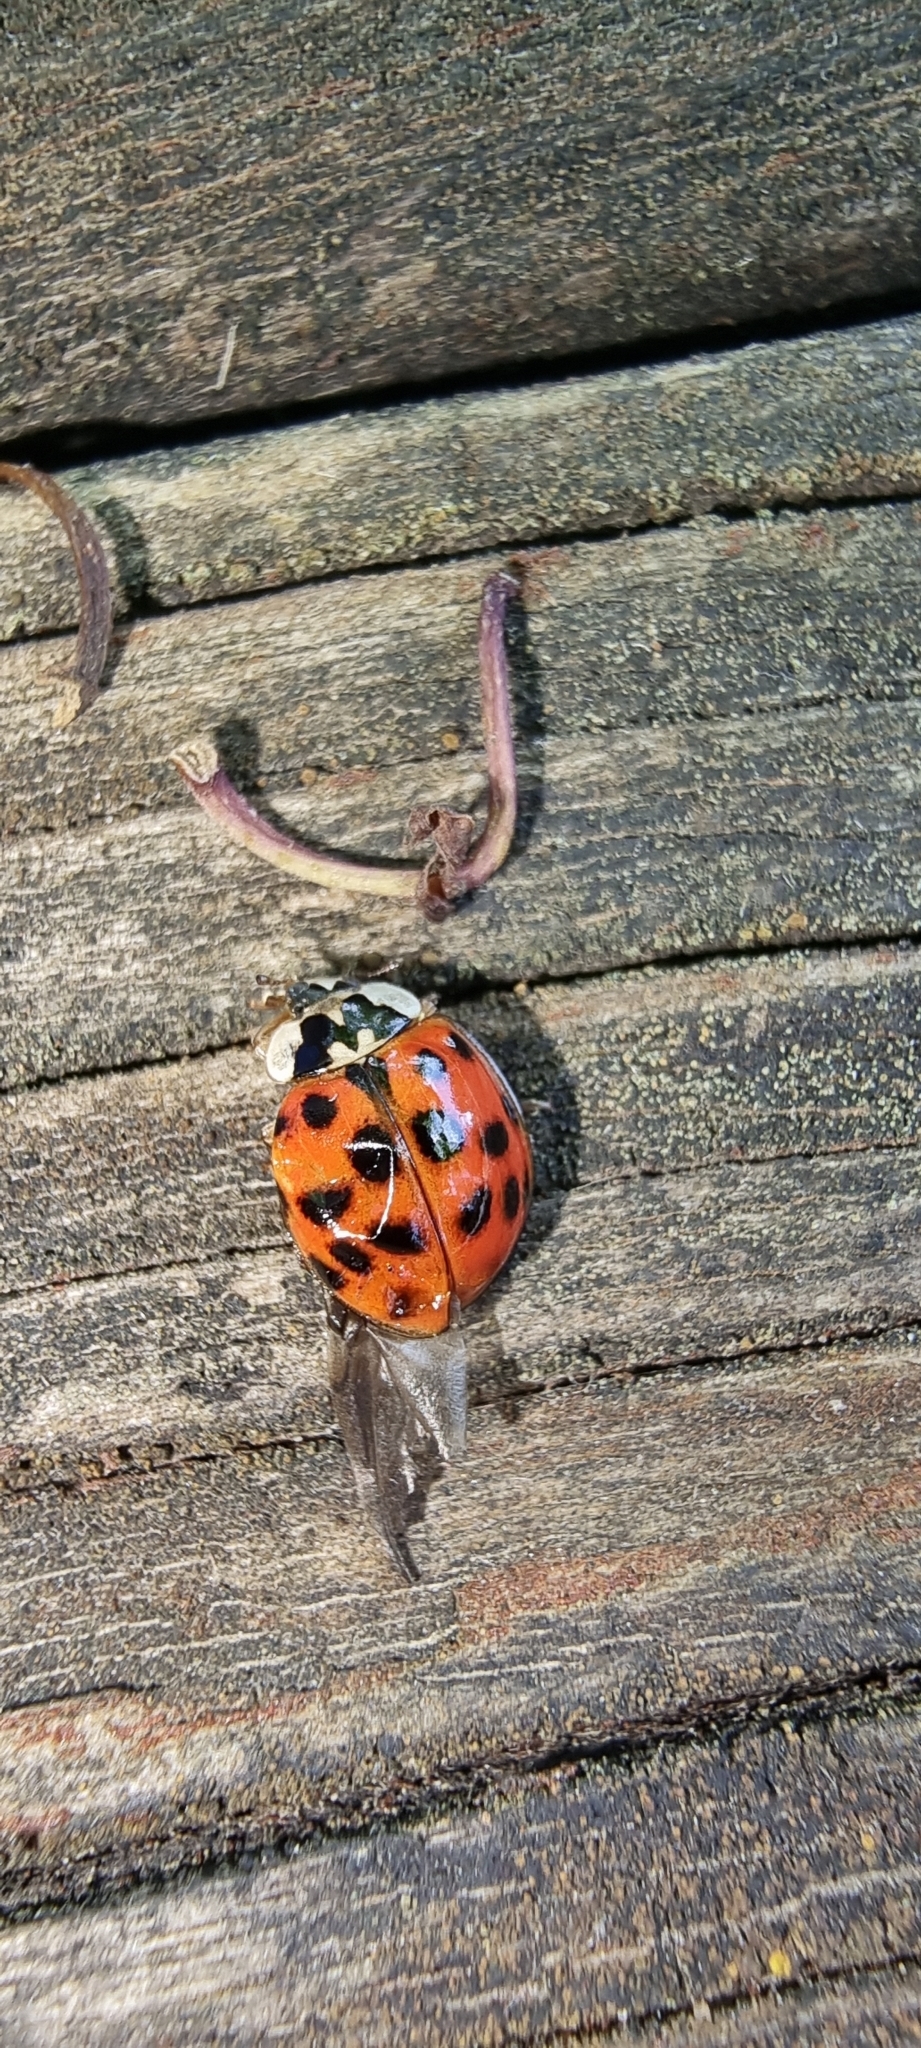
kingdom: Animalia
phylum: Arthropoda
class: Insecta
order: Coleoptera
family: Coccinellidae
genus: Harmonia
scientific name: Harmonia axyridis
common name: Harlequin ladybird
